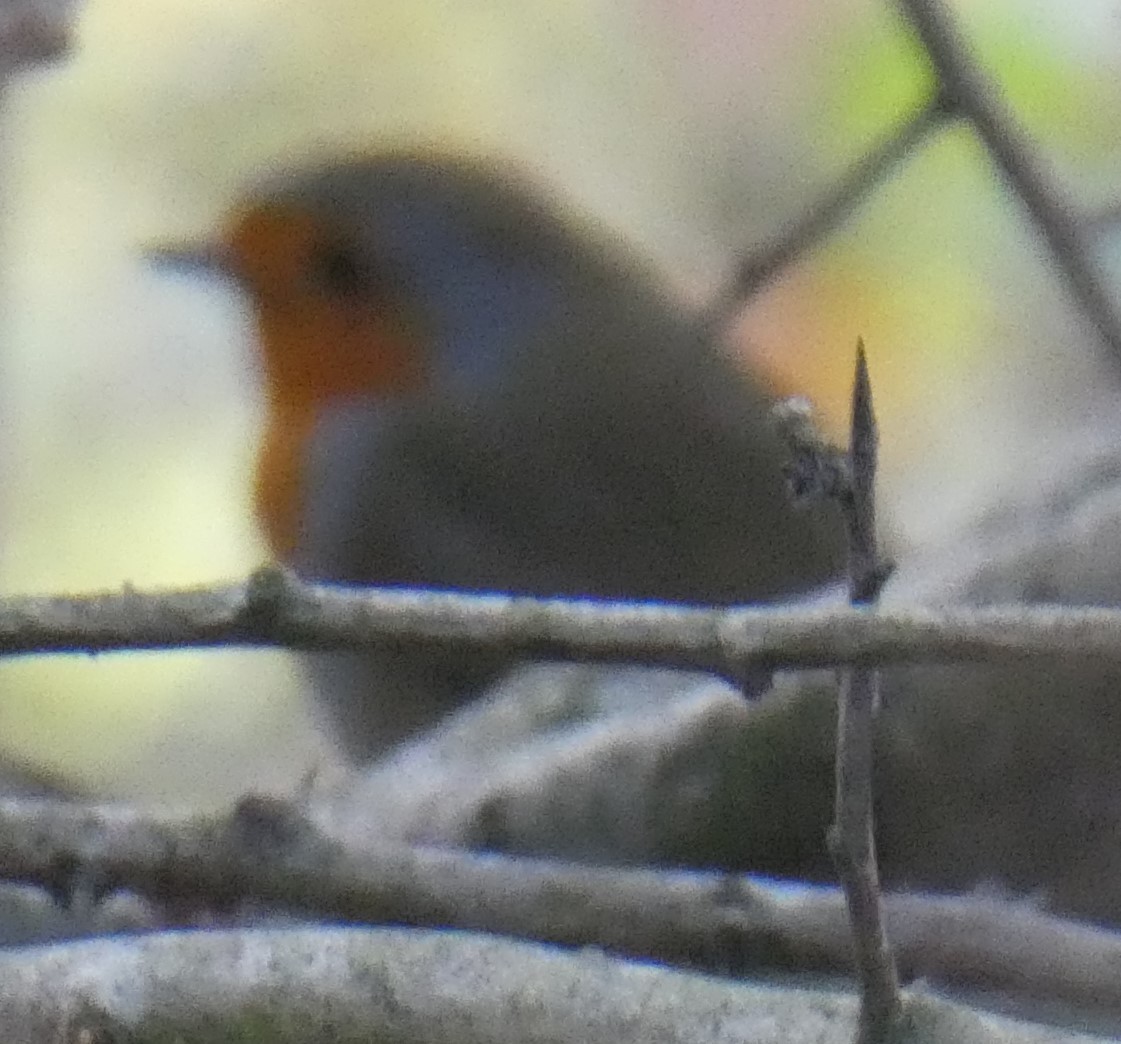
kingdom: Animalia
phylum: Chordata
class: Aves
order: Passeriformes
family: Muscicapidae
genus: Erithacus
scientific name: Erithacus rubecula
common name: European robin
